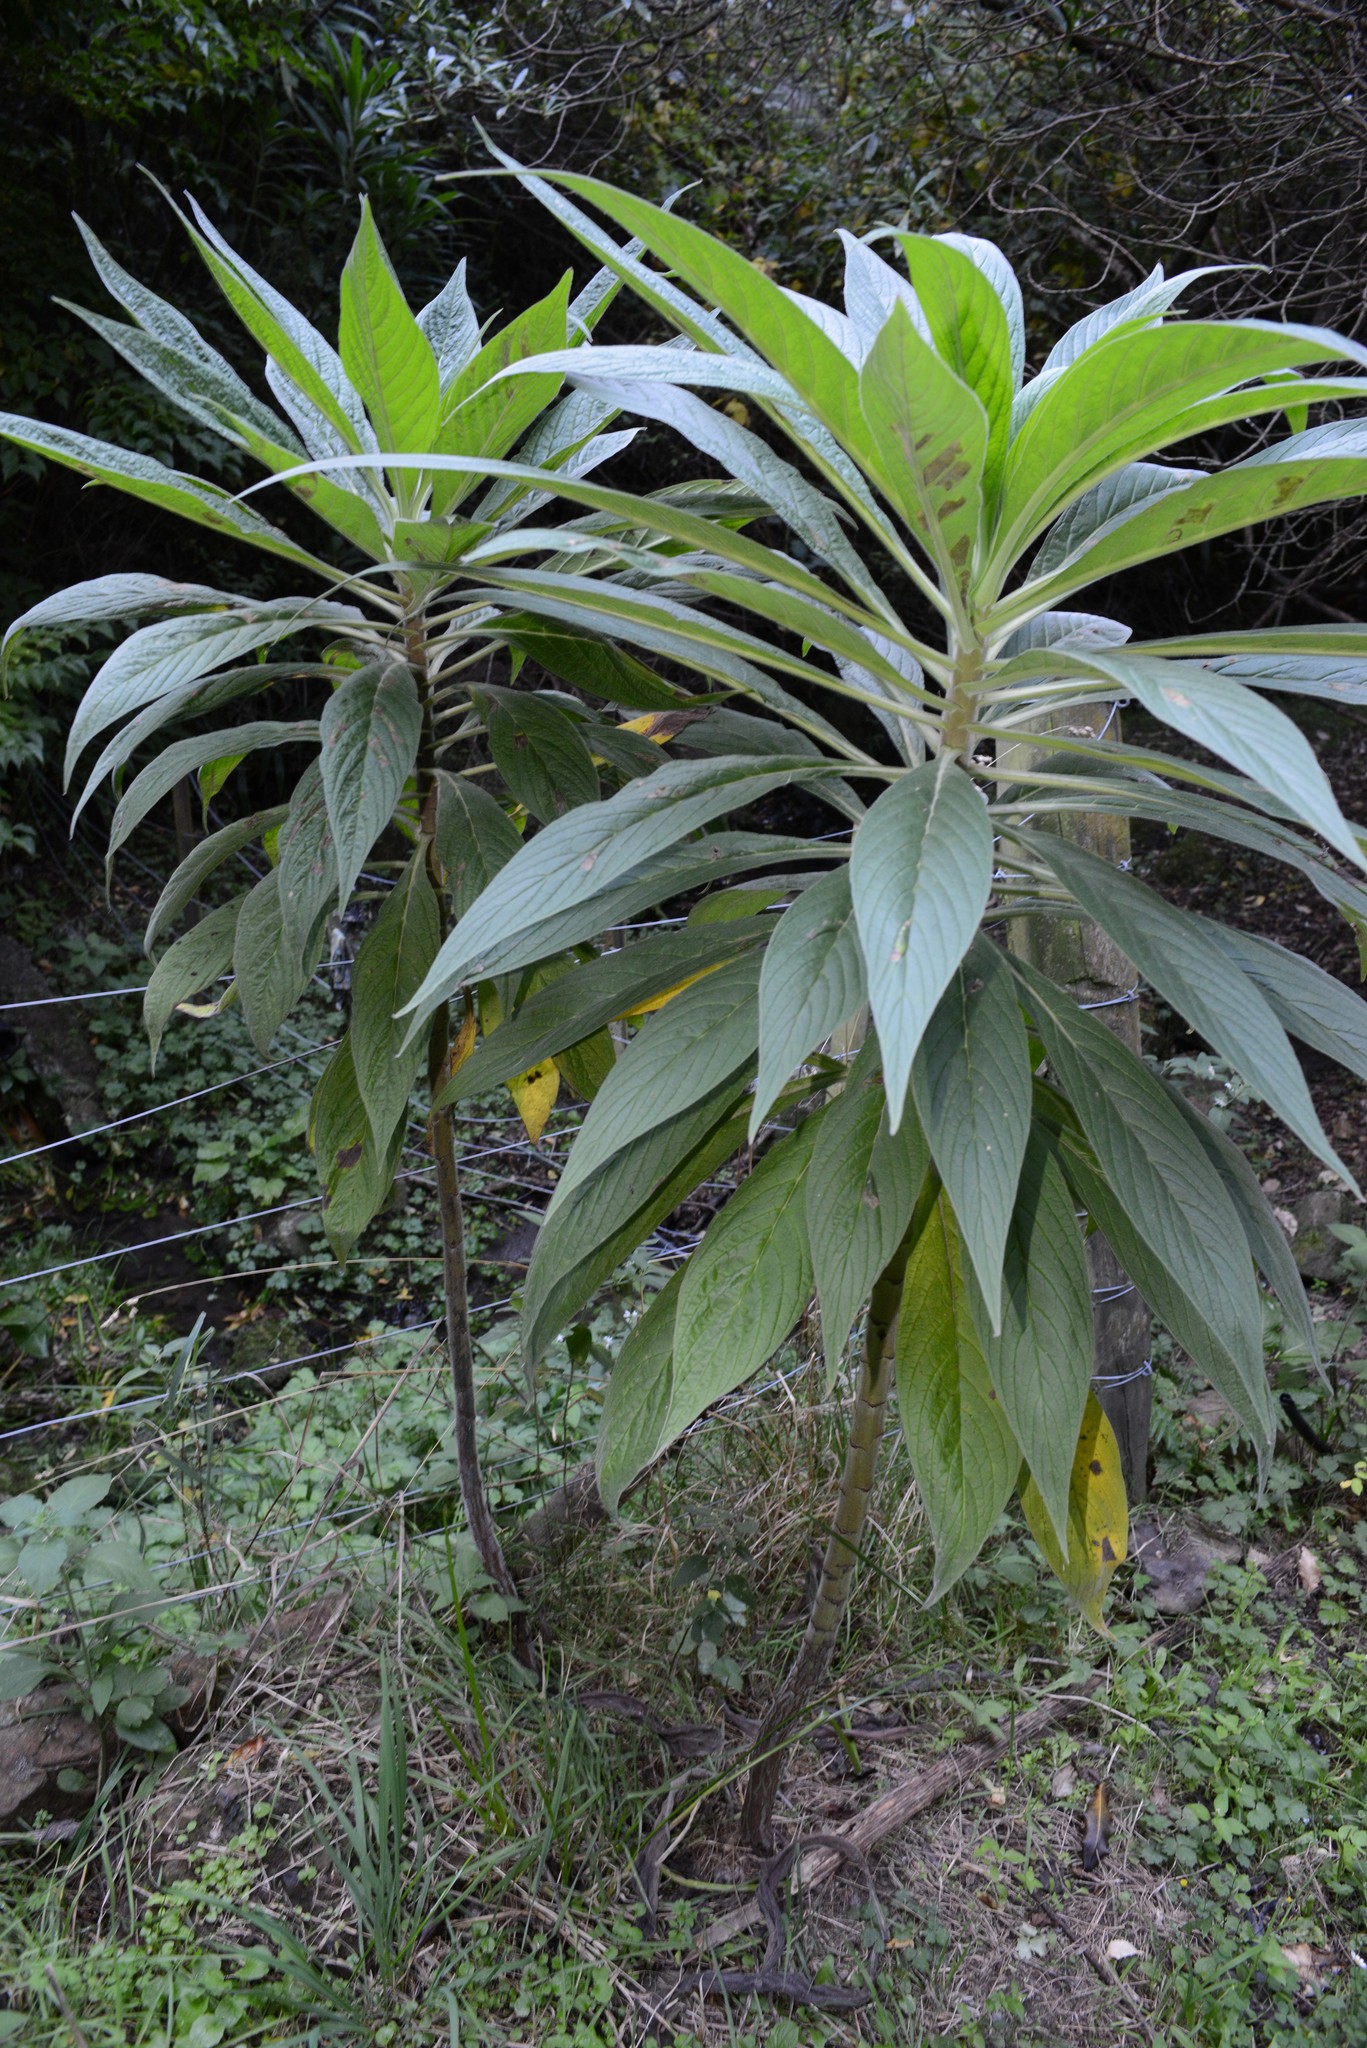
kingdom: Plantae
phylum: Tracheophyta
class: Magnoliopsida
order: Boraginales
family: Boraginaceae
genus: Echium
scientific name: Echium pininana
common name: Giant viper's-bugloss
